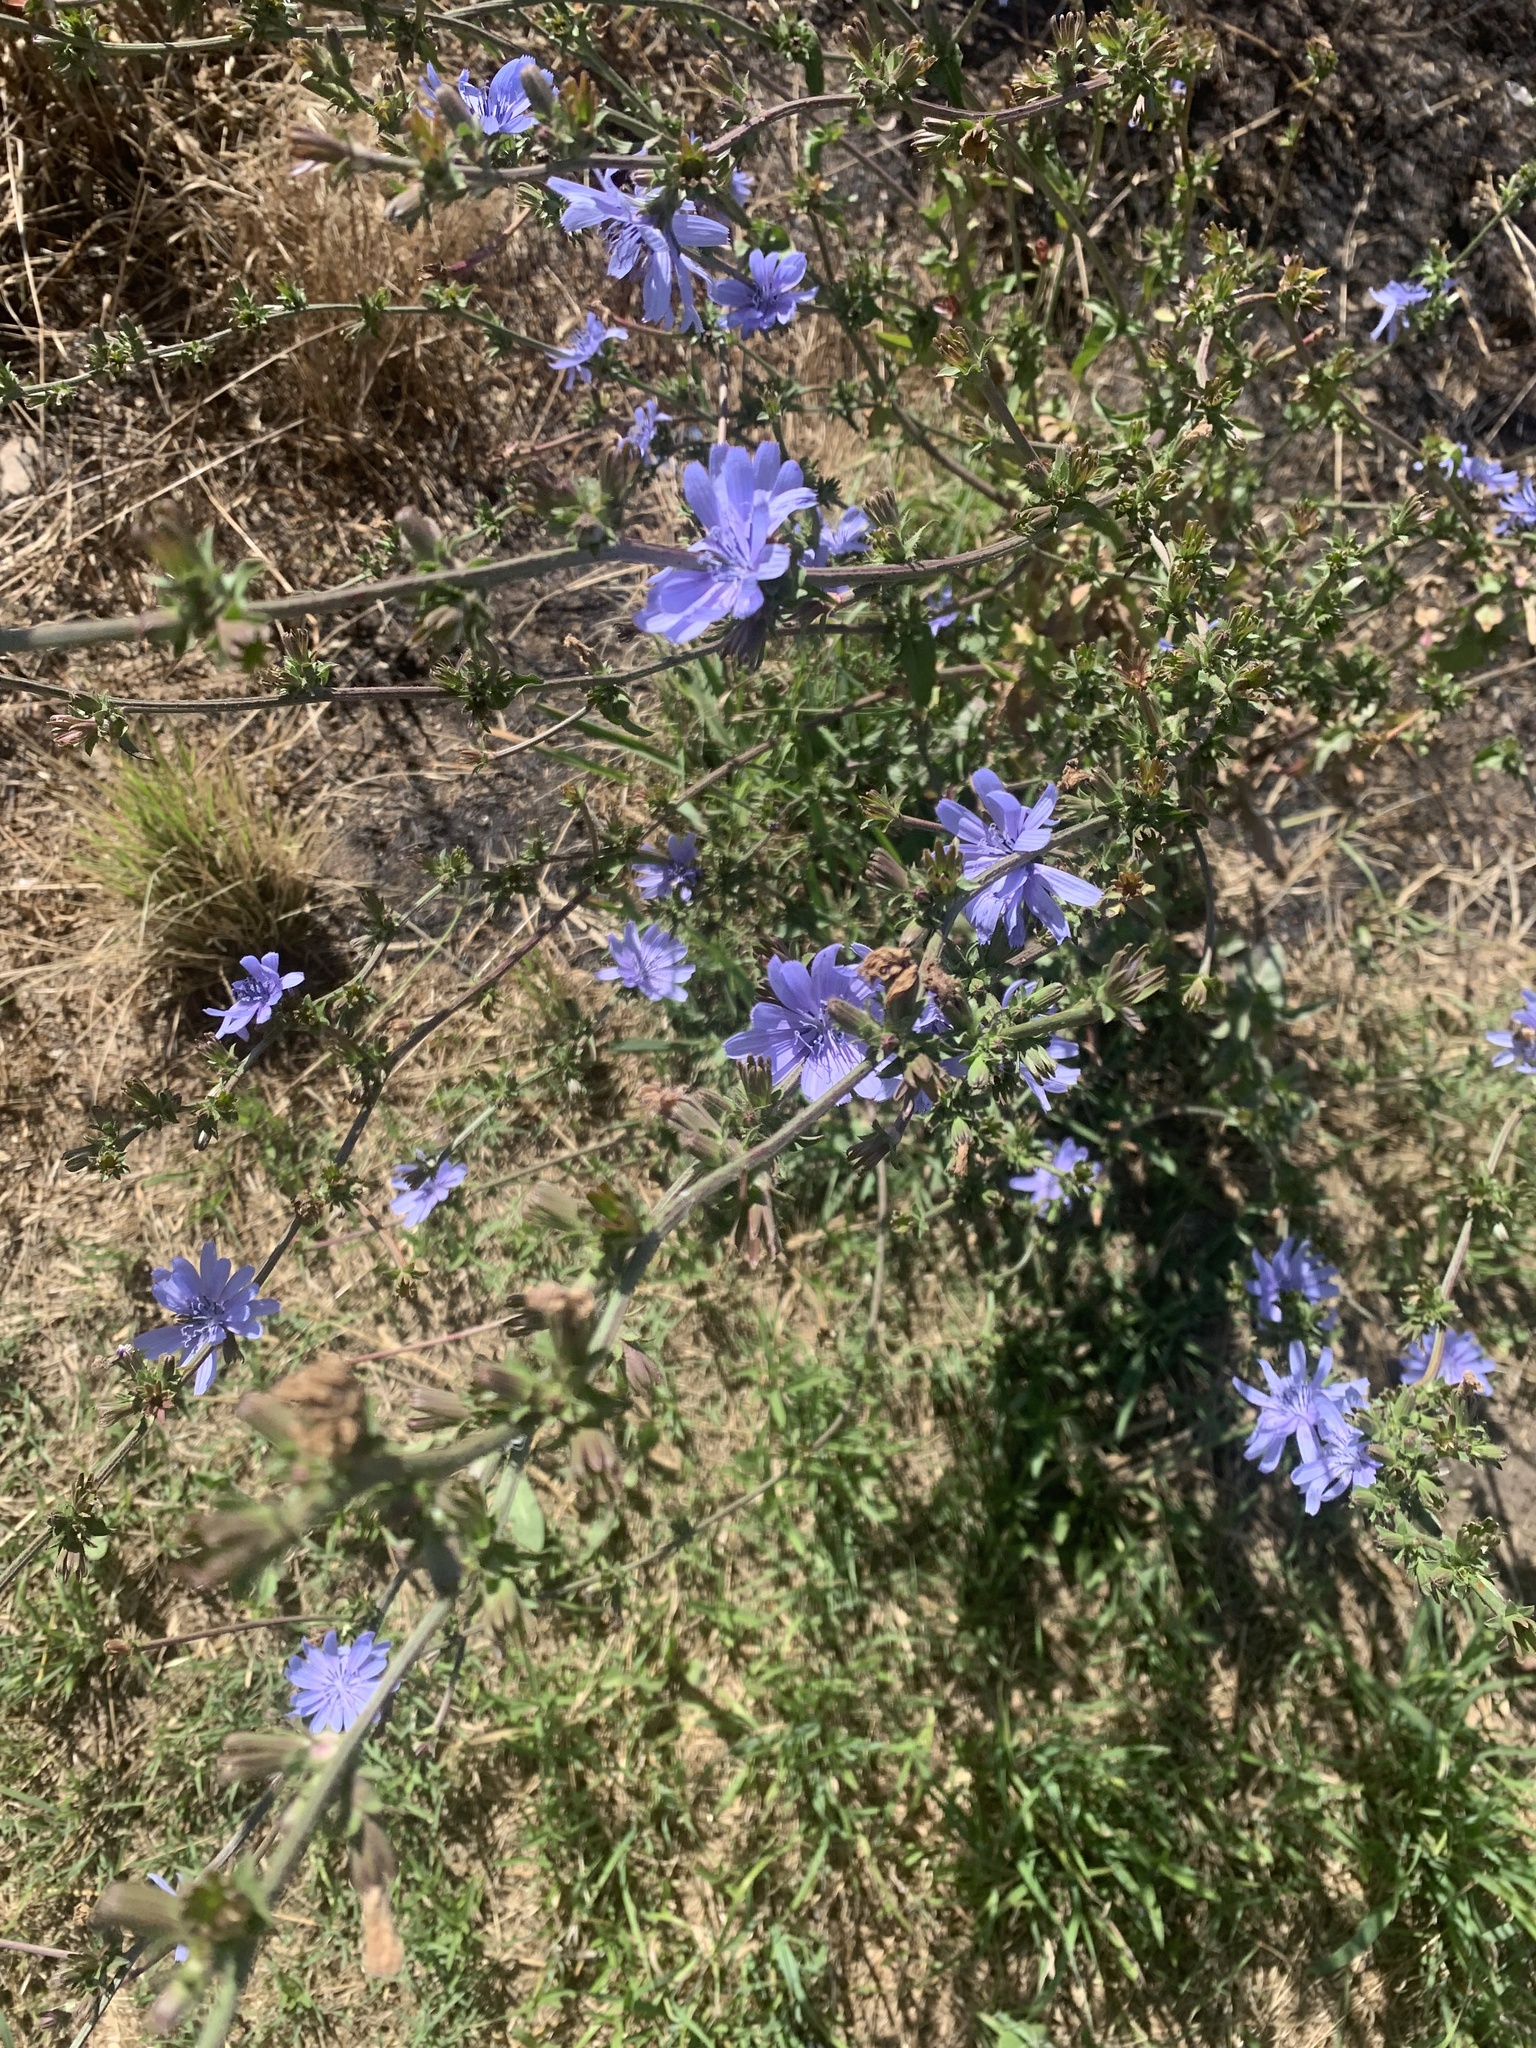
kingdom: Plantae
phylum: Tracheophyta
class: Magnoliopsida
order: Asterales
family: Asteraceae
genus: Cichorium
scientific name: Cichorium intybus
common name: Chicory
